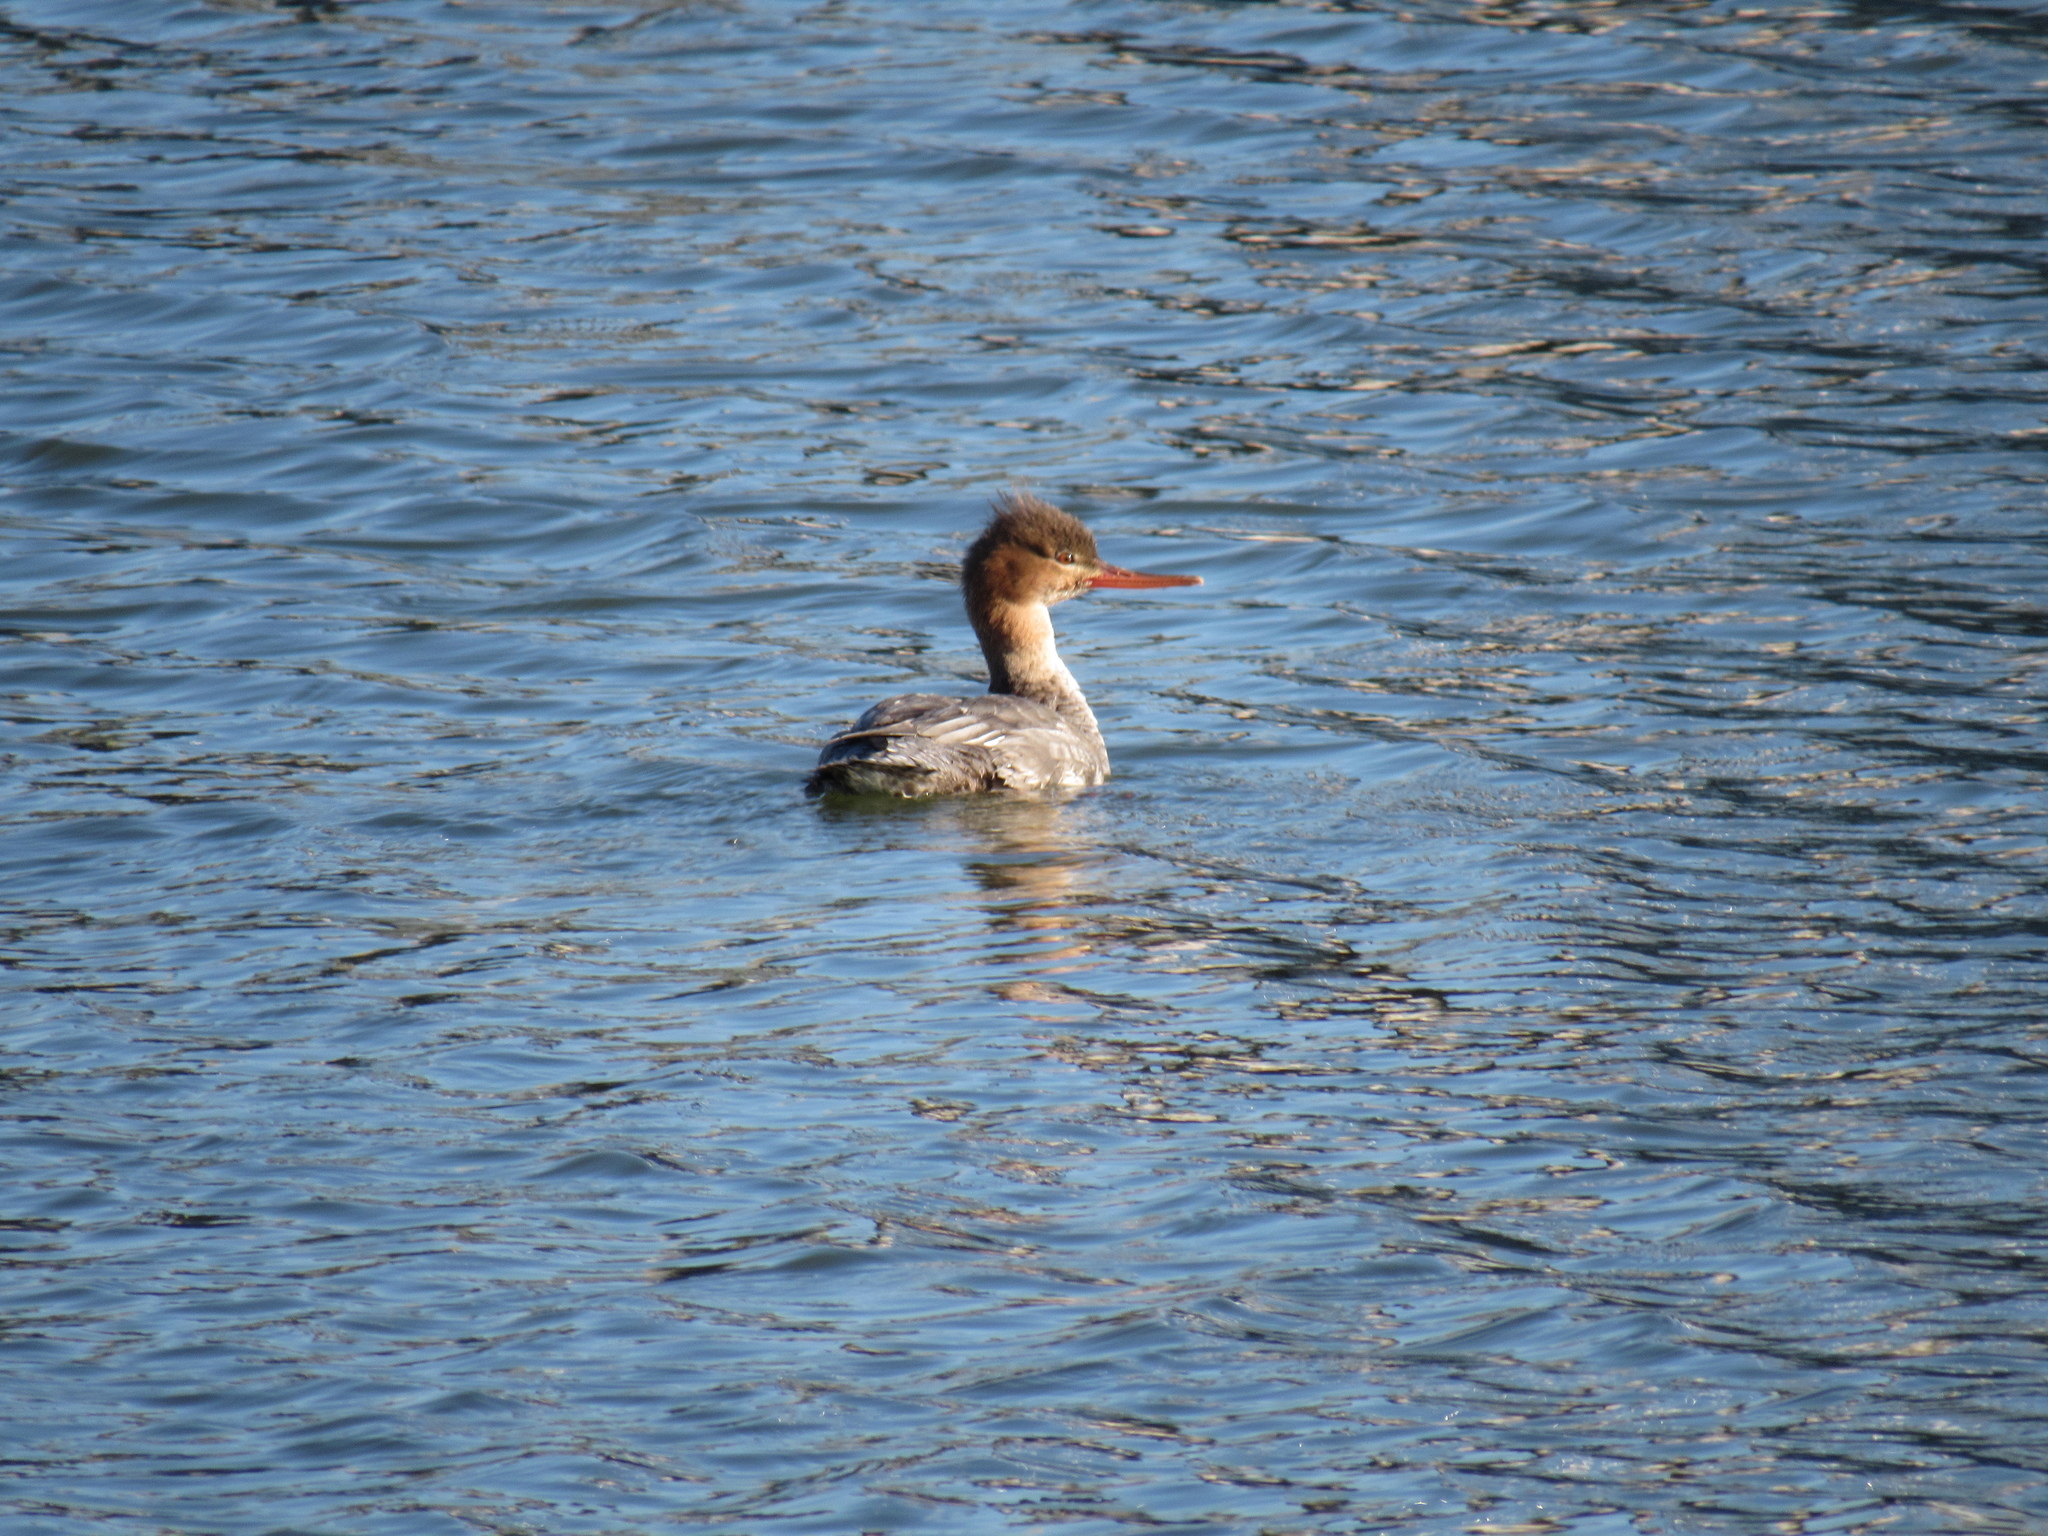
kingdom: Animalia
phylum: Chordata
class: Aves
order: Anseriformes
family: Anatidae
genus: Mergus
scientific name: Mergus serrator
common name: Red-breasted merganser
